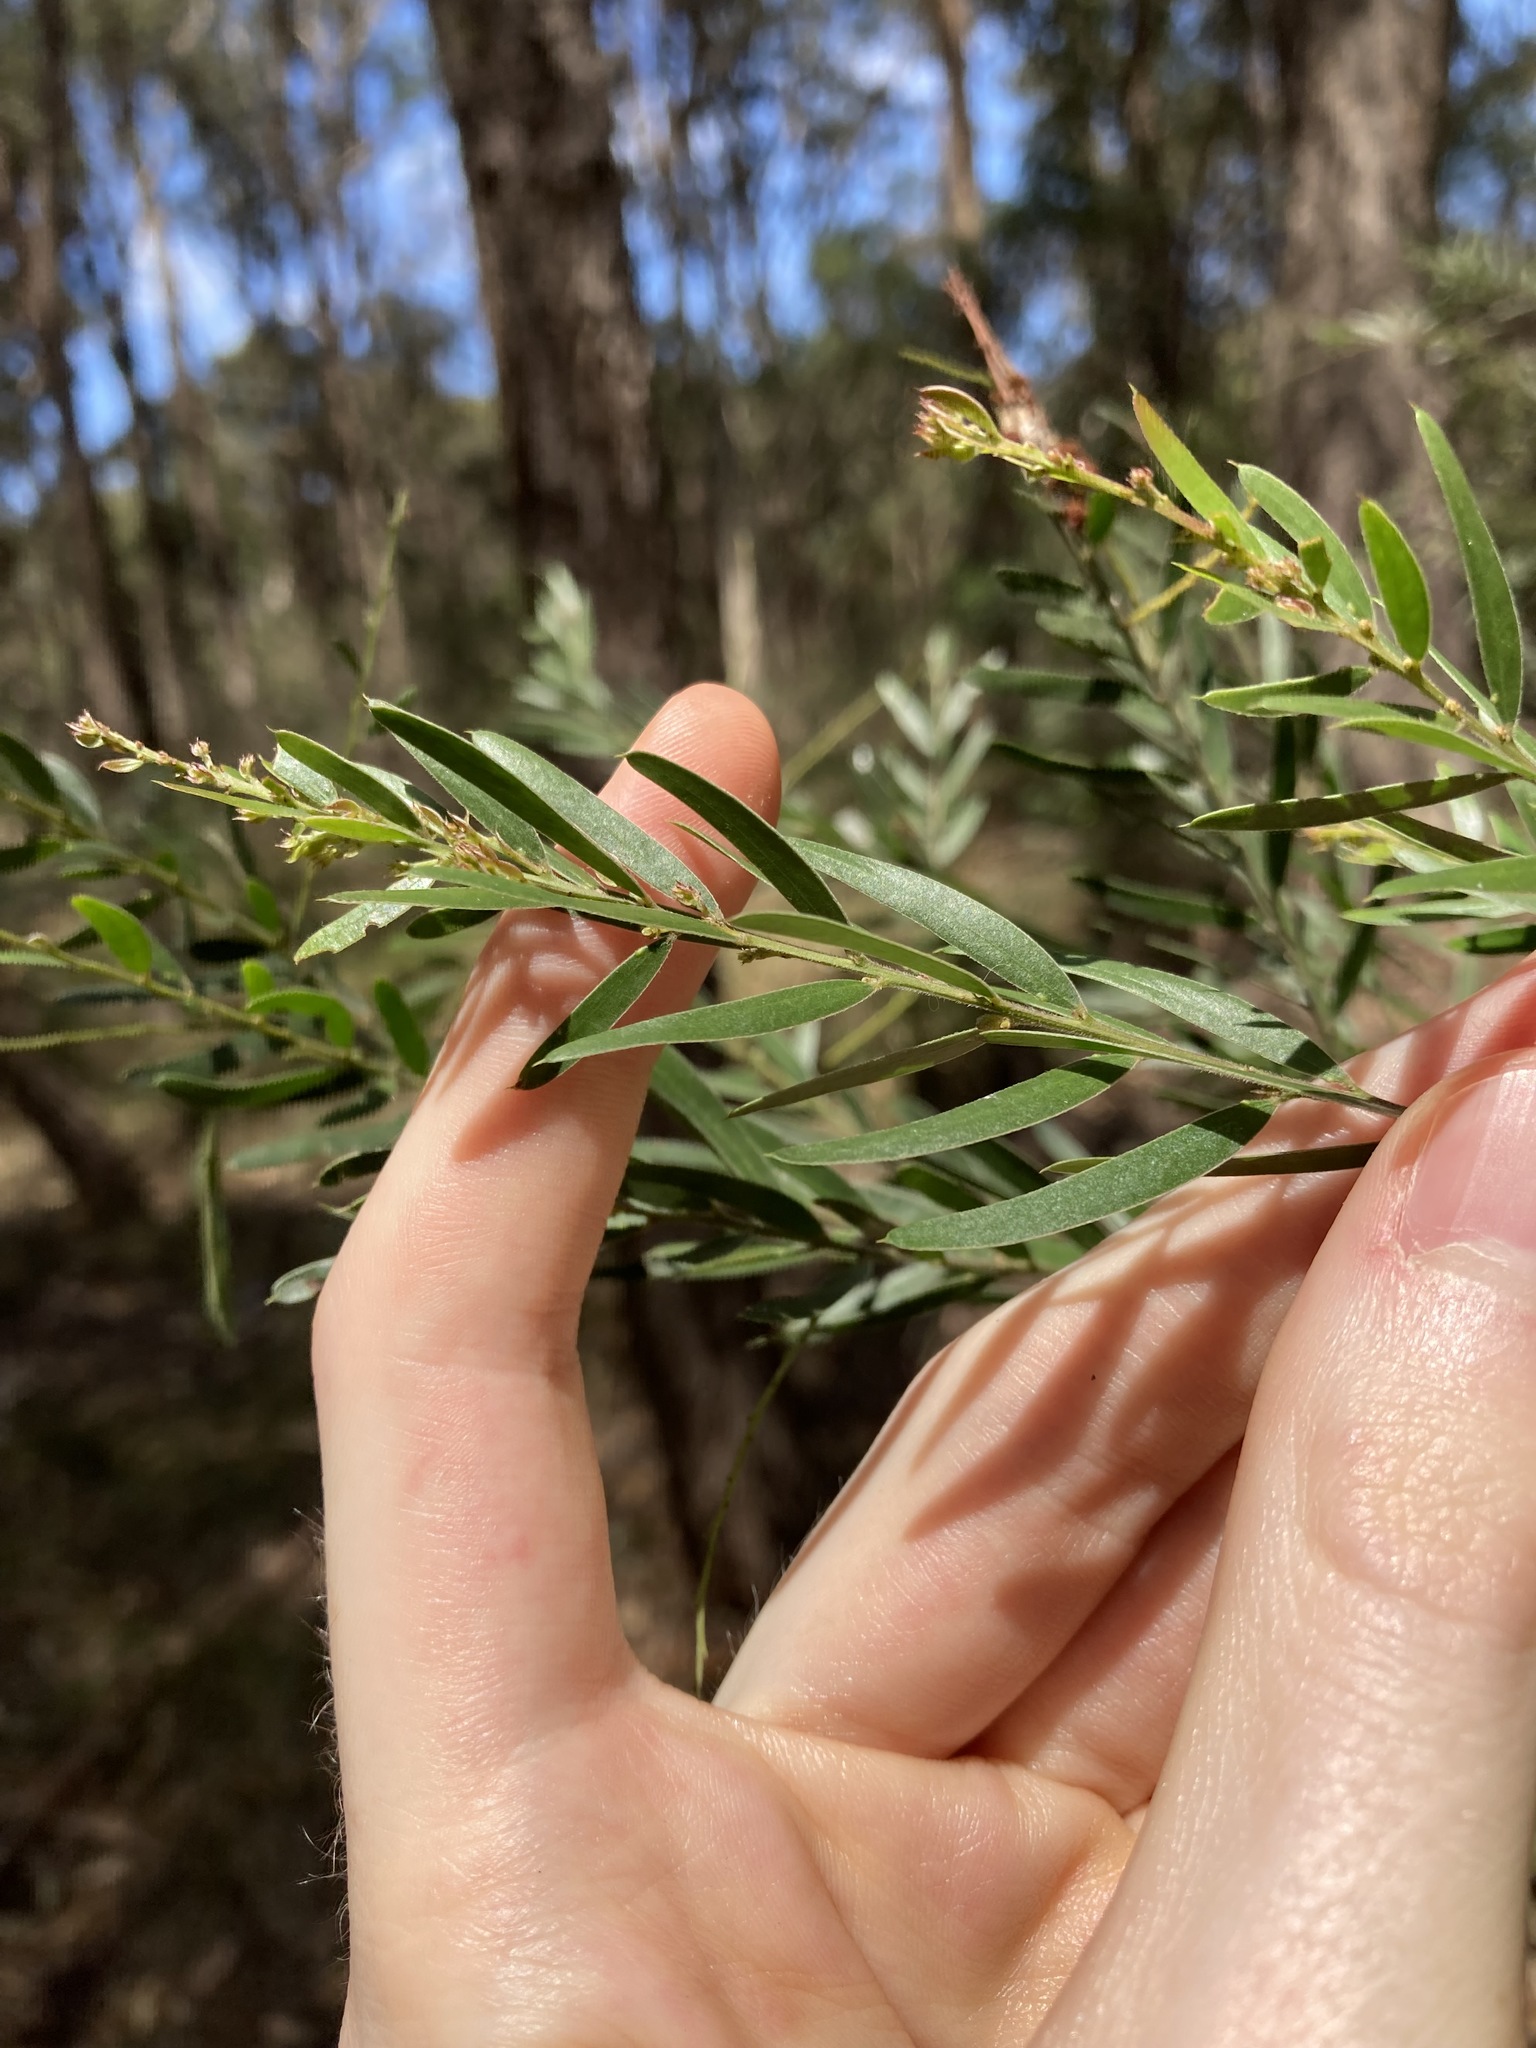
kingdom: Plantae
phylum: Tracheophyta
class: Magnoliopsida
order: Fabales
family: Fabaceae
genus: Acacia
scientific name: Acacia fimbriata
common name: Brisbane golden wattle
